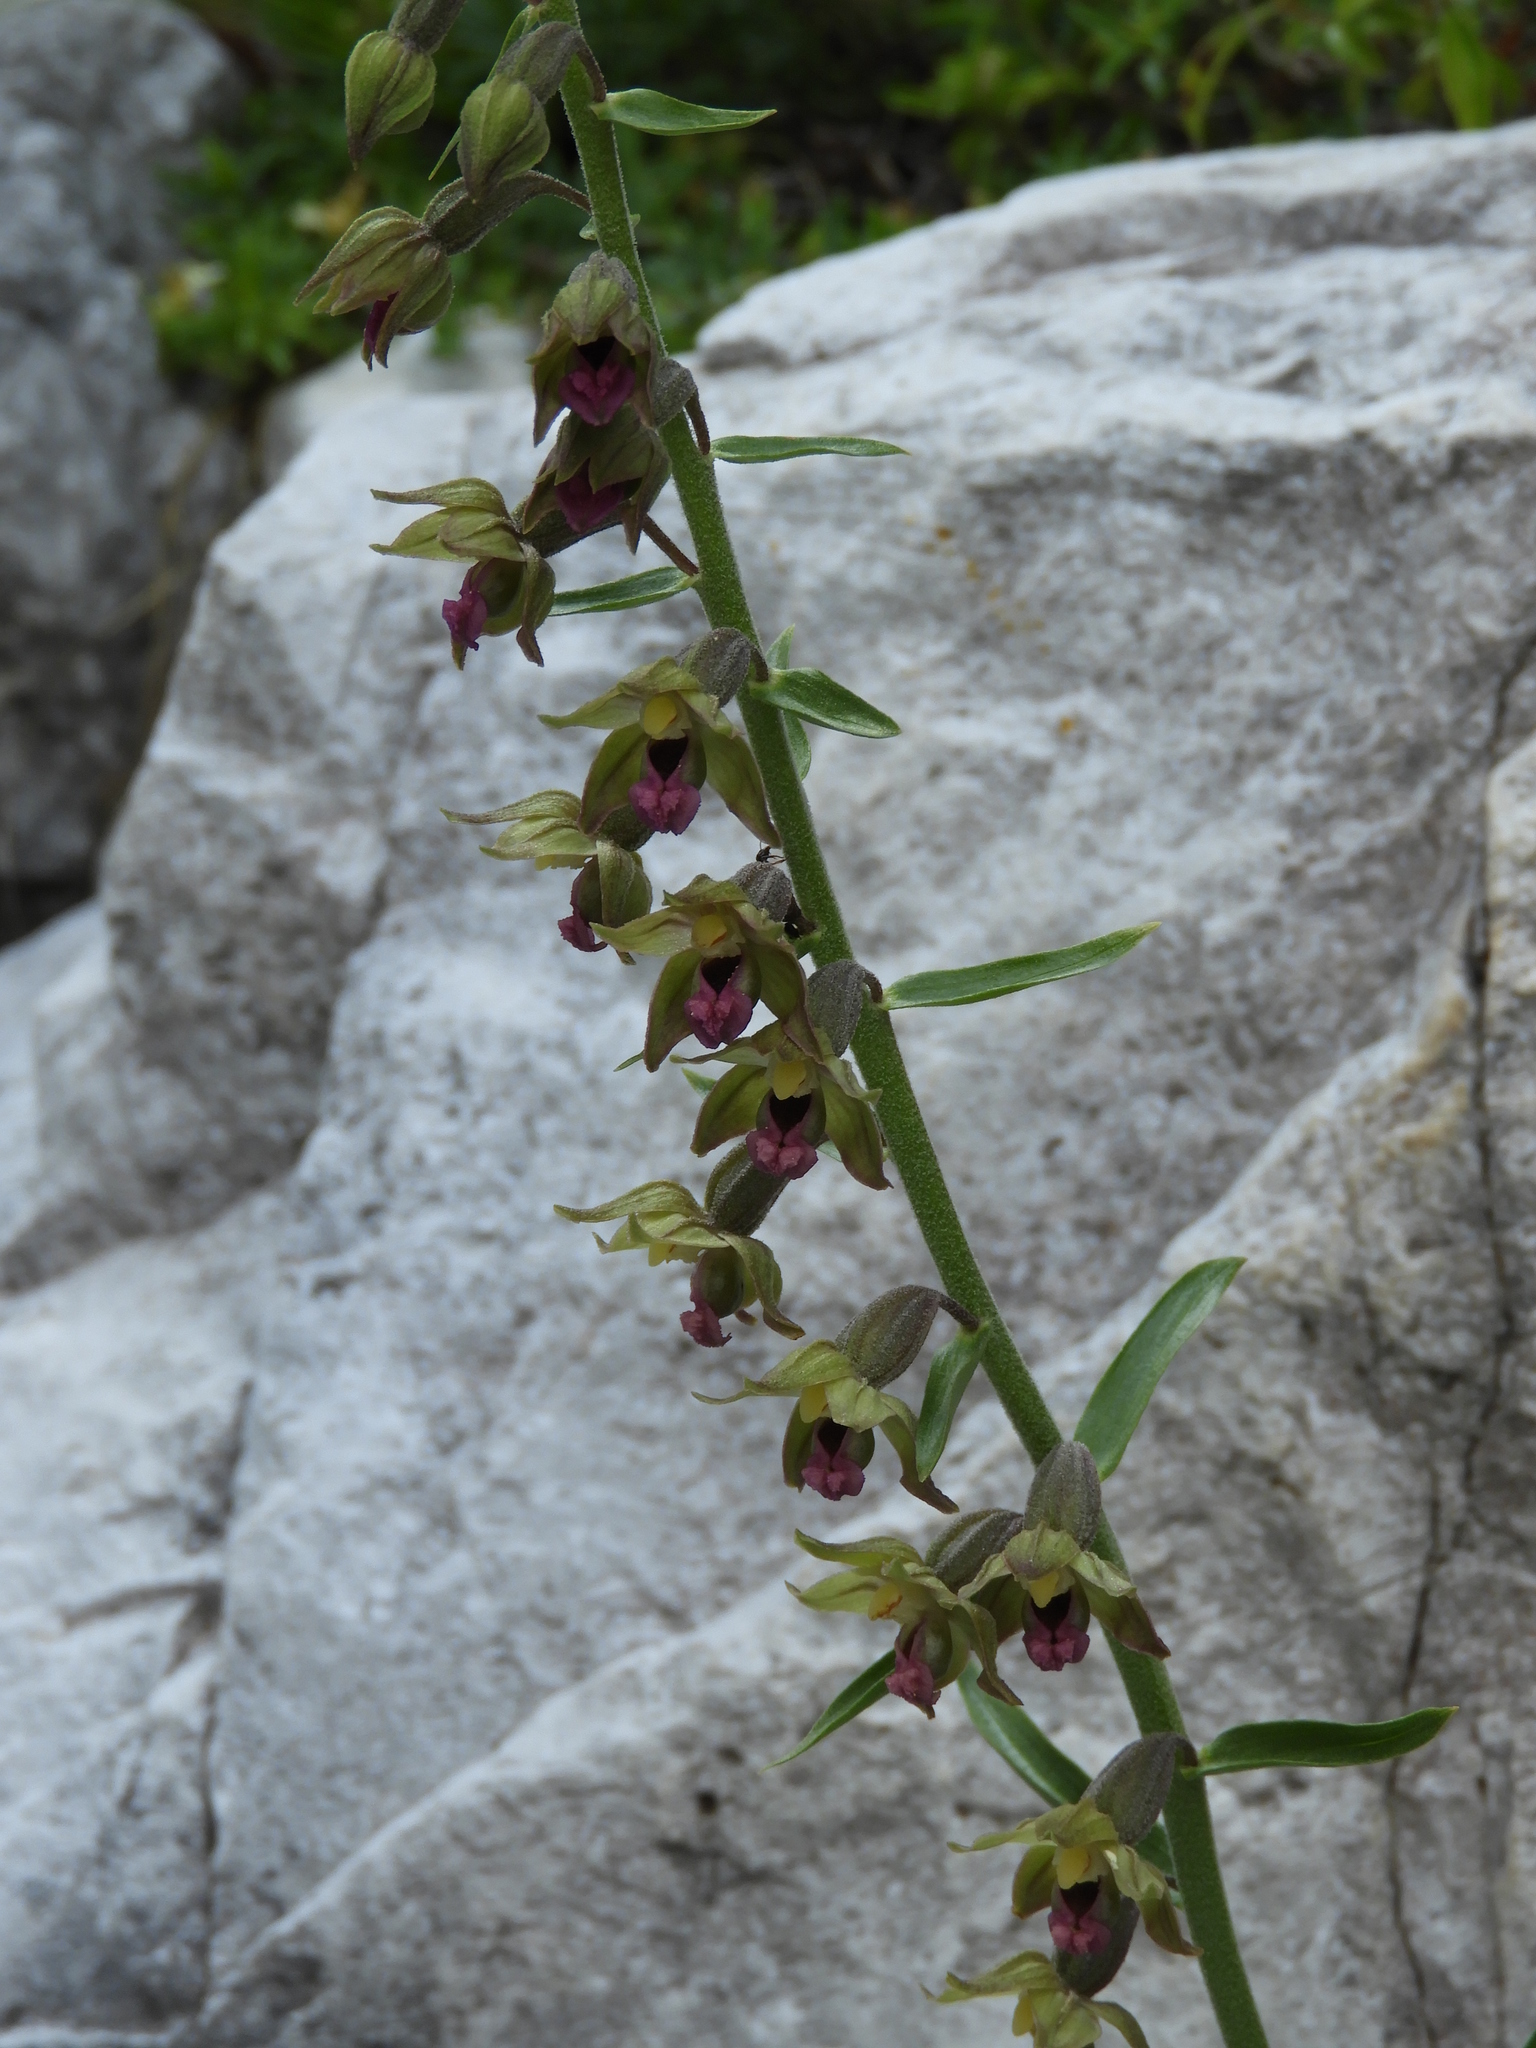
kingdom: Plantae
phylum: Tracheophyta
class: Liliopsida
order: Asparagales
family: Orchidaceae
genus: Epipactis
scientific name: Epipactis atrorubens
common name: Dark-red helleborine
